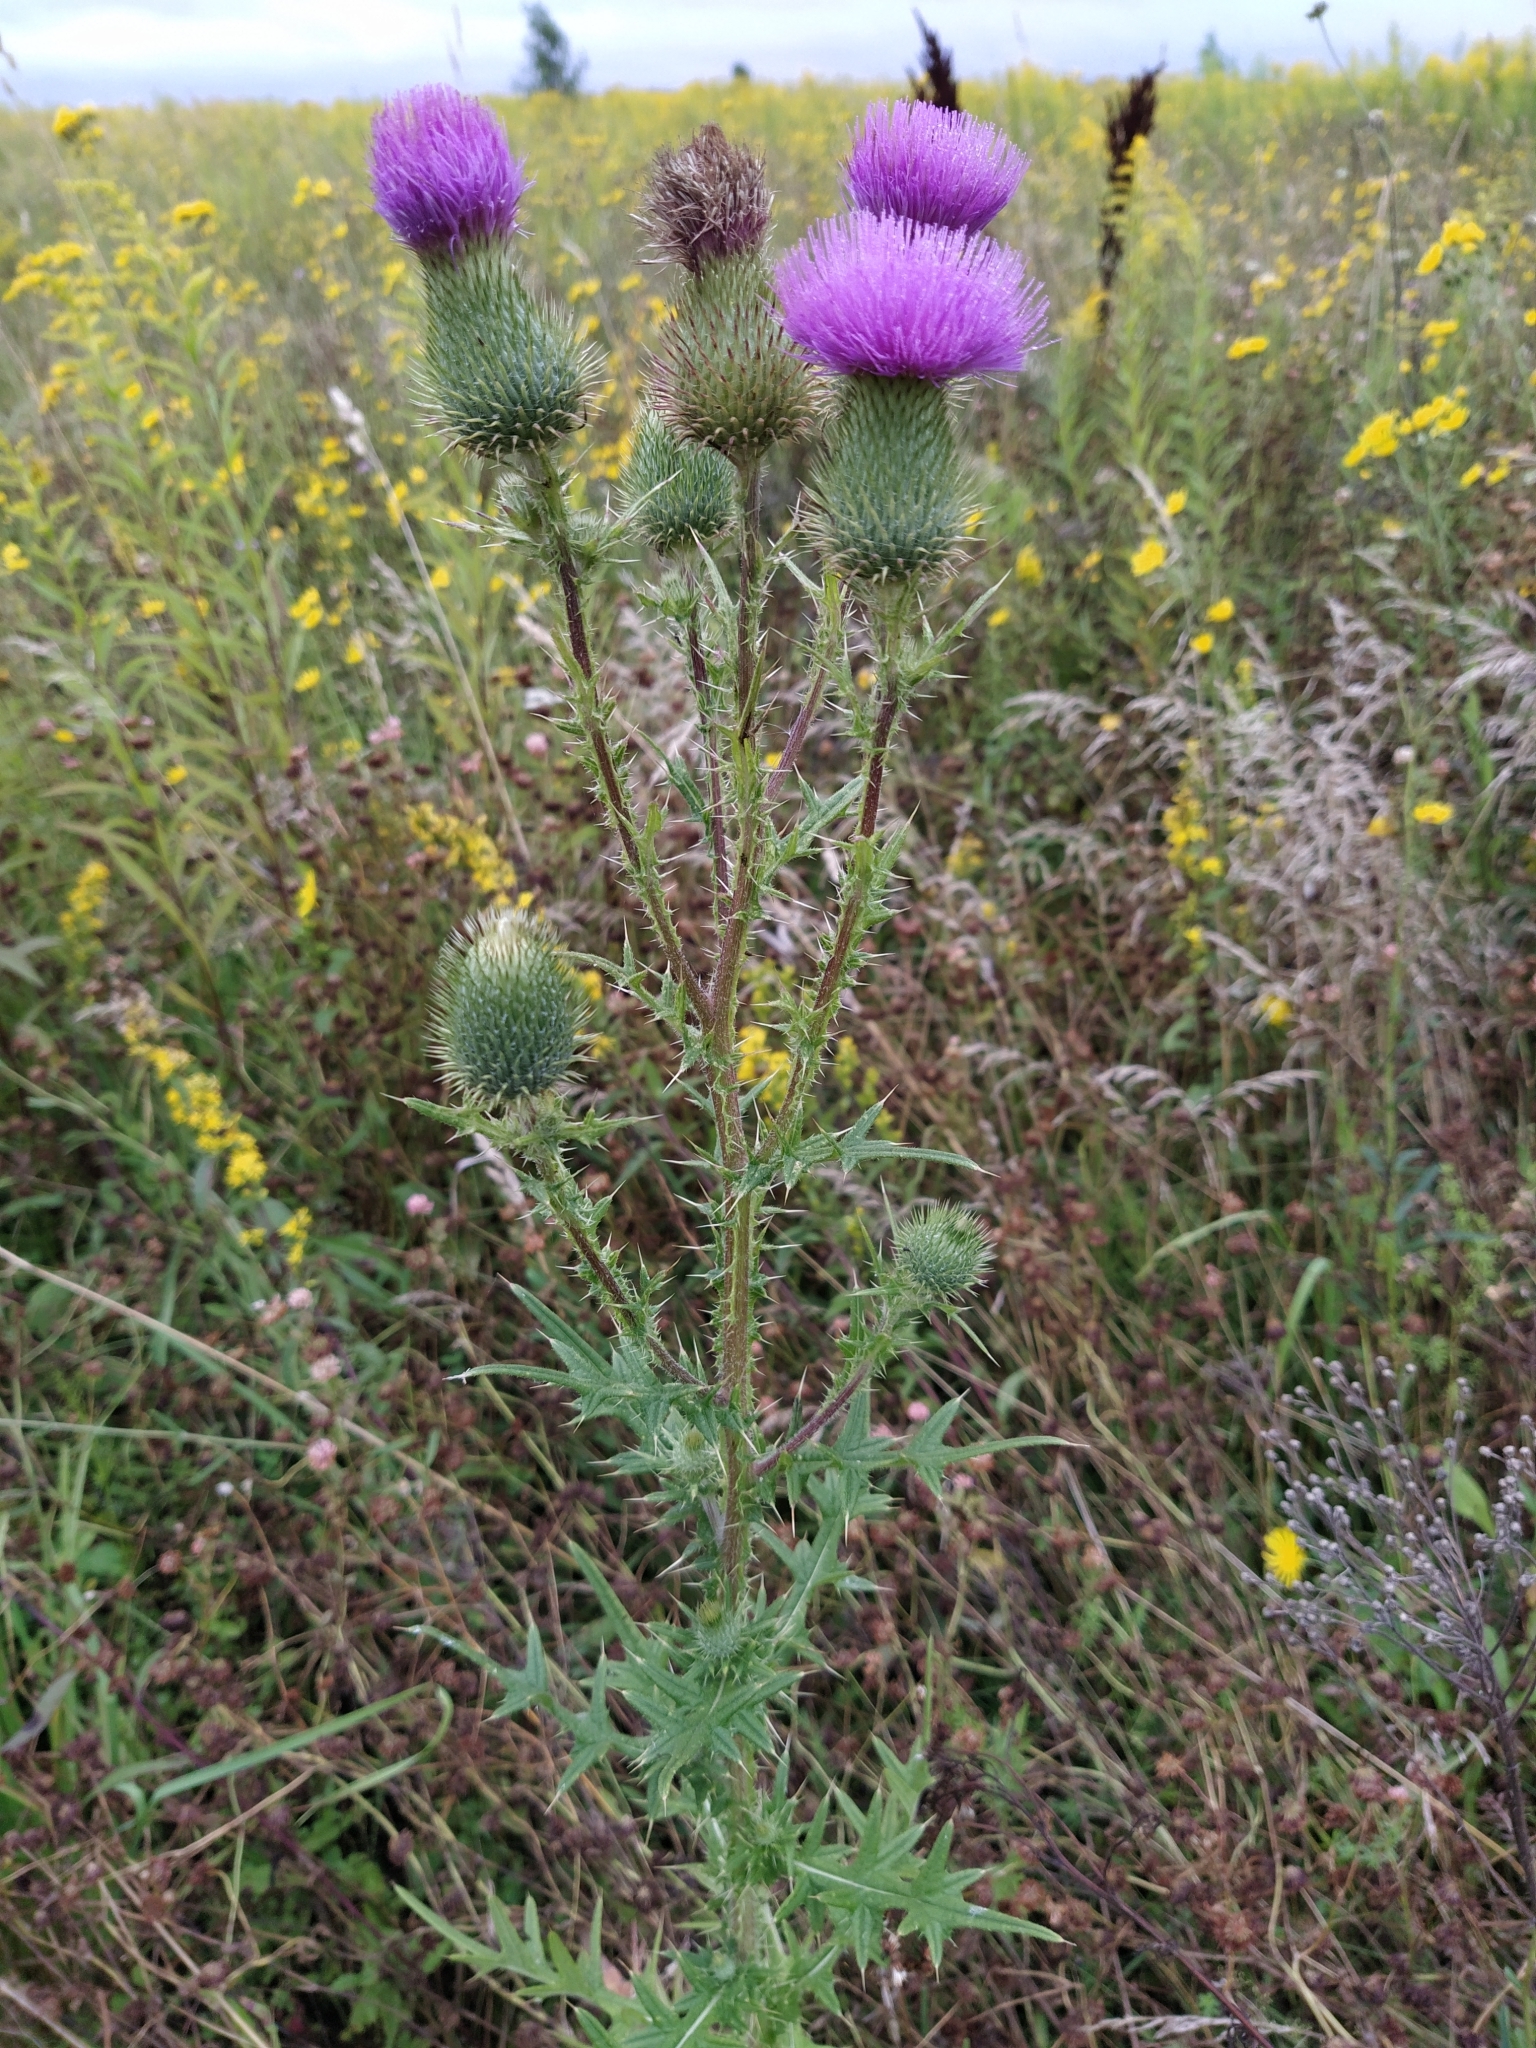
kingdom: Plantae
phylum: Tracheophyta
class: Magnoliopsida
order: Asterales
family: Asteraceae
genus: Cirsium
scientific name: Cirsium vulgare
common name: Bull thistle
